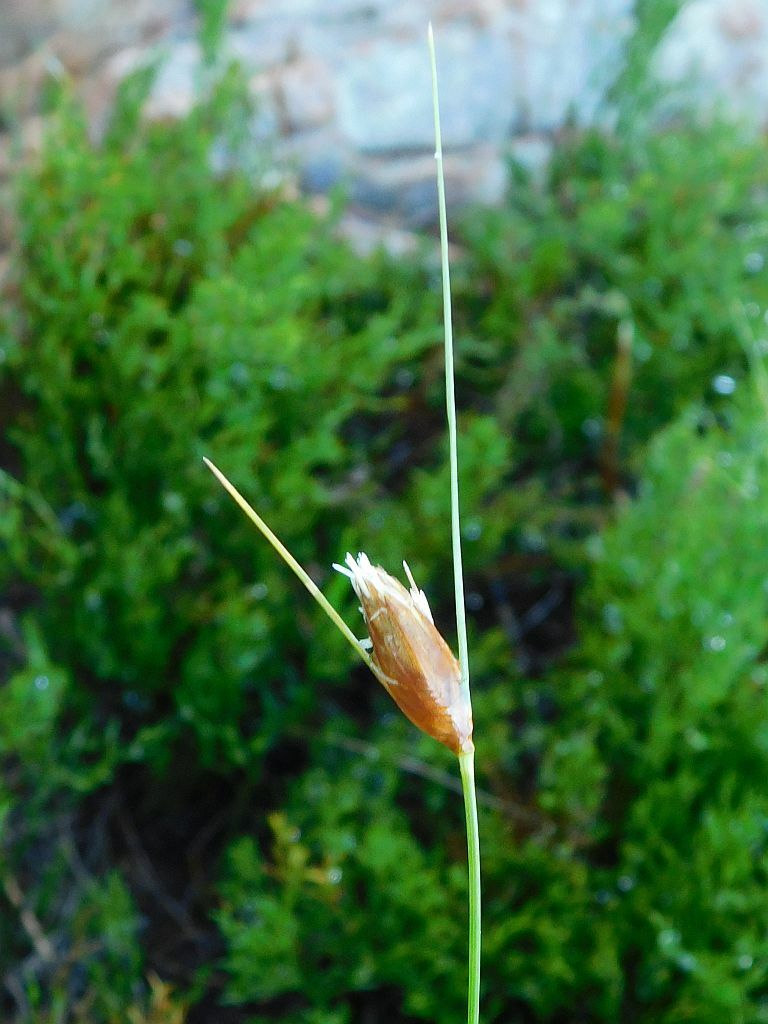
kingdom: Plantae
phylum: Tracheophyta
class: Liliopsida
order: Poales
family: Cyperaceae
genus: Ficinia
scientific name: Ficinia nigrescens
